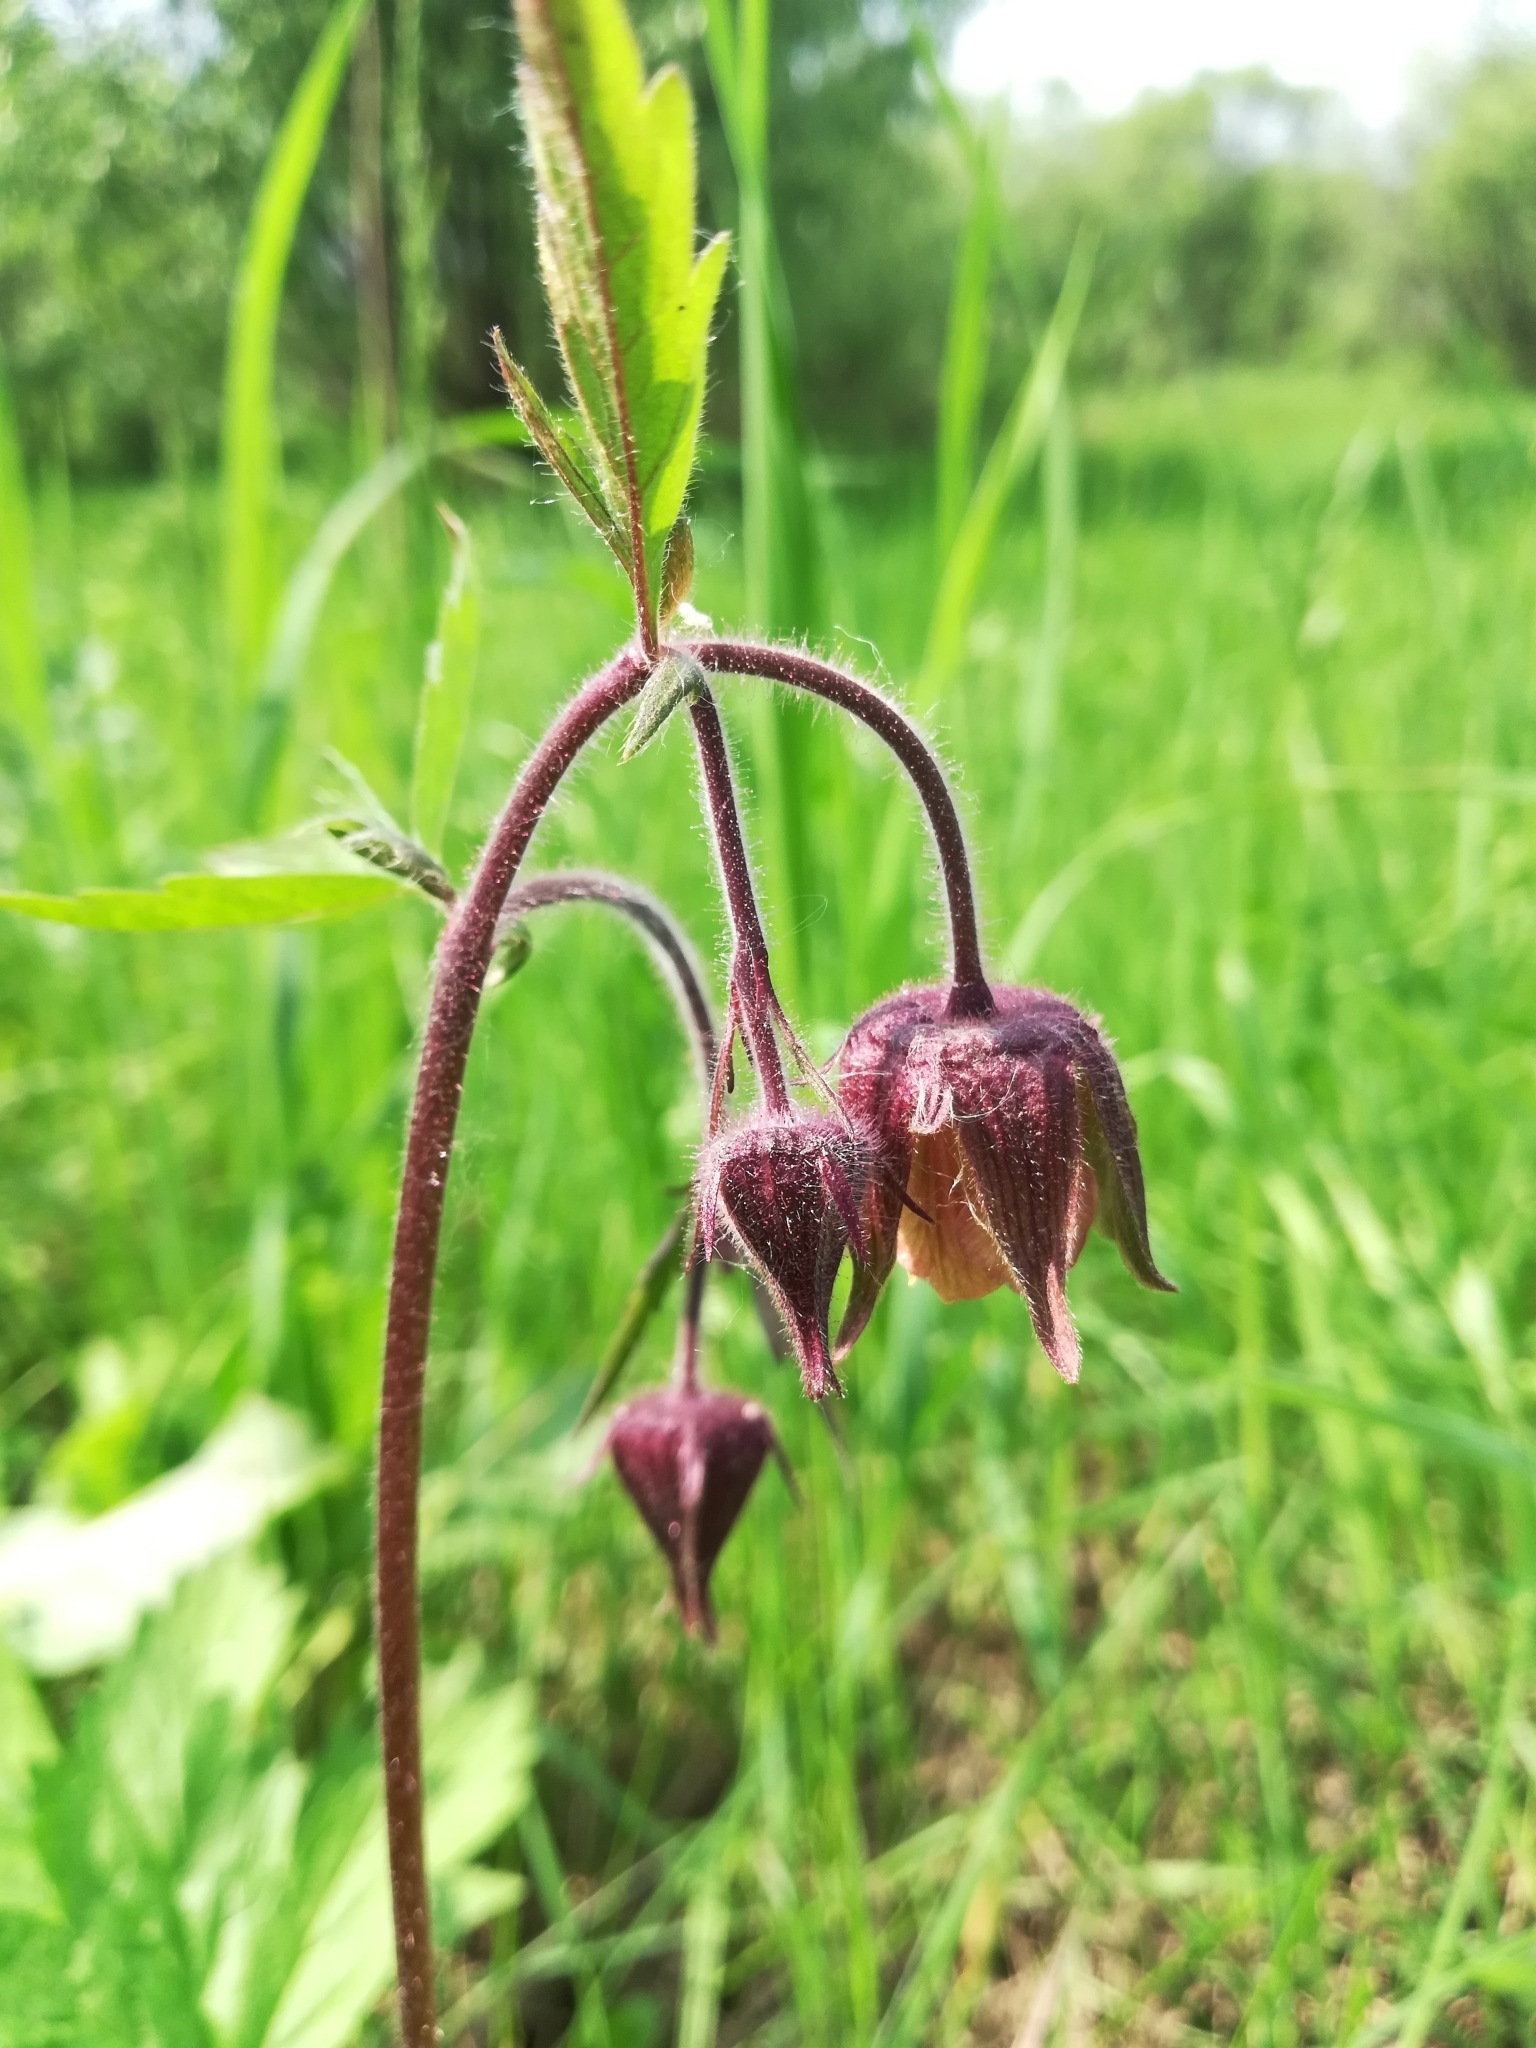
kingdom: Plantae
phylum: Tracheophyta
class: Magnoliopsida
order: Rosales
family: Rosaceae
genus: Geum
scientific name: Geum rivale
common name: Water avens
